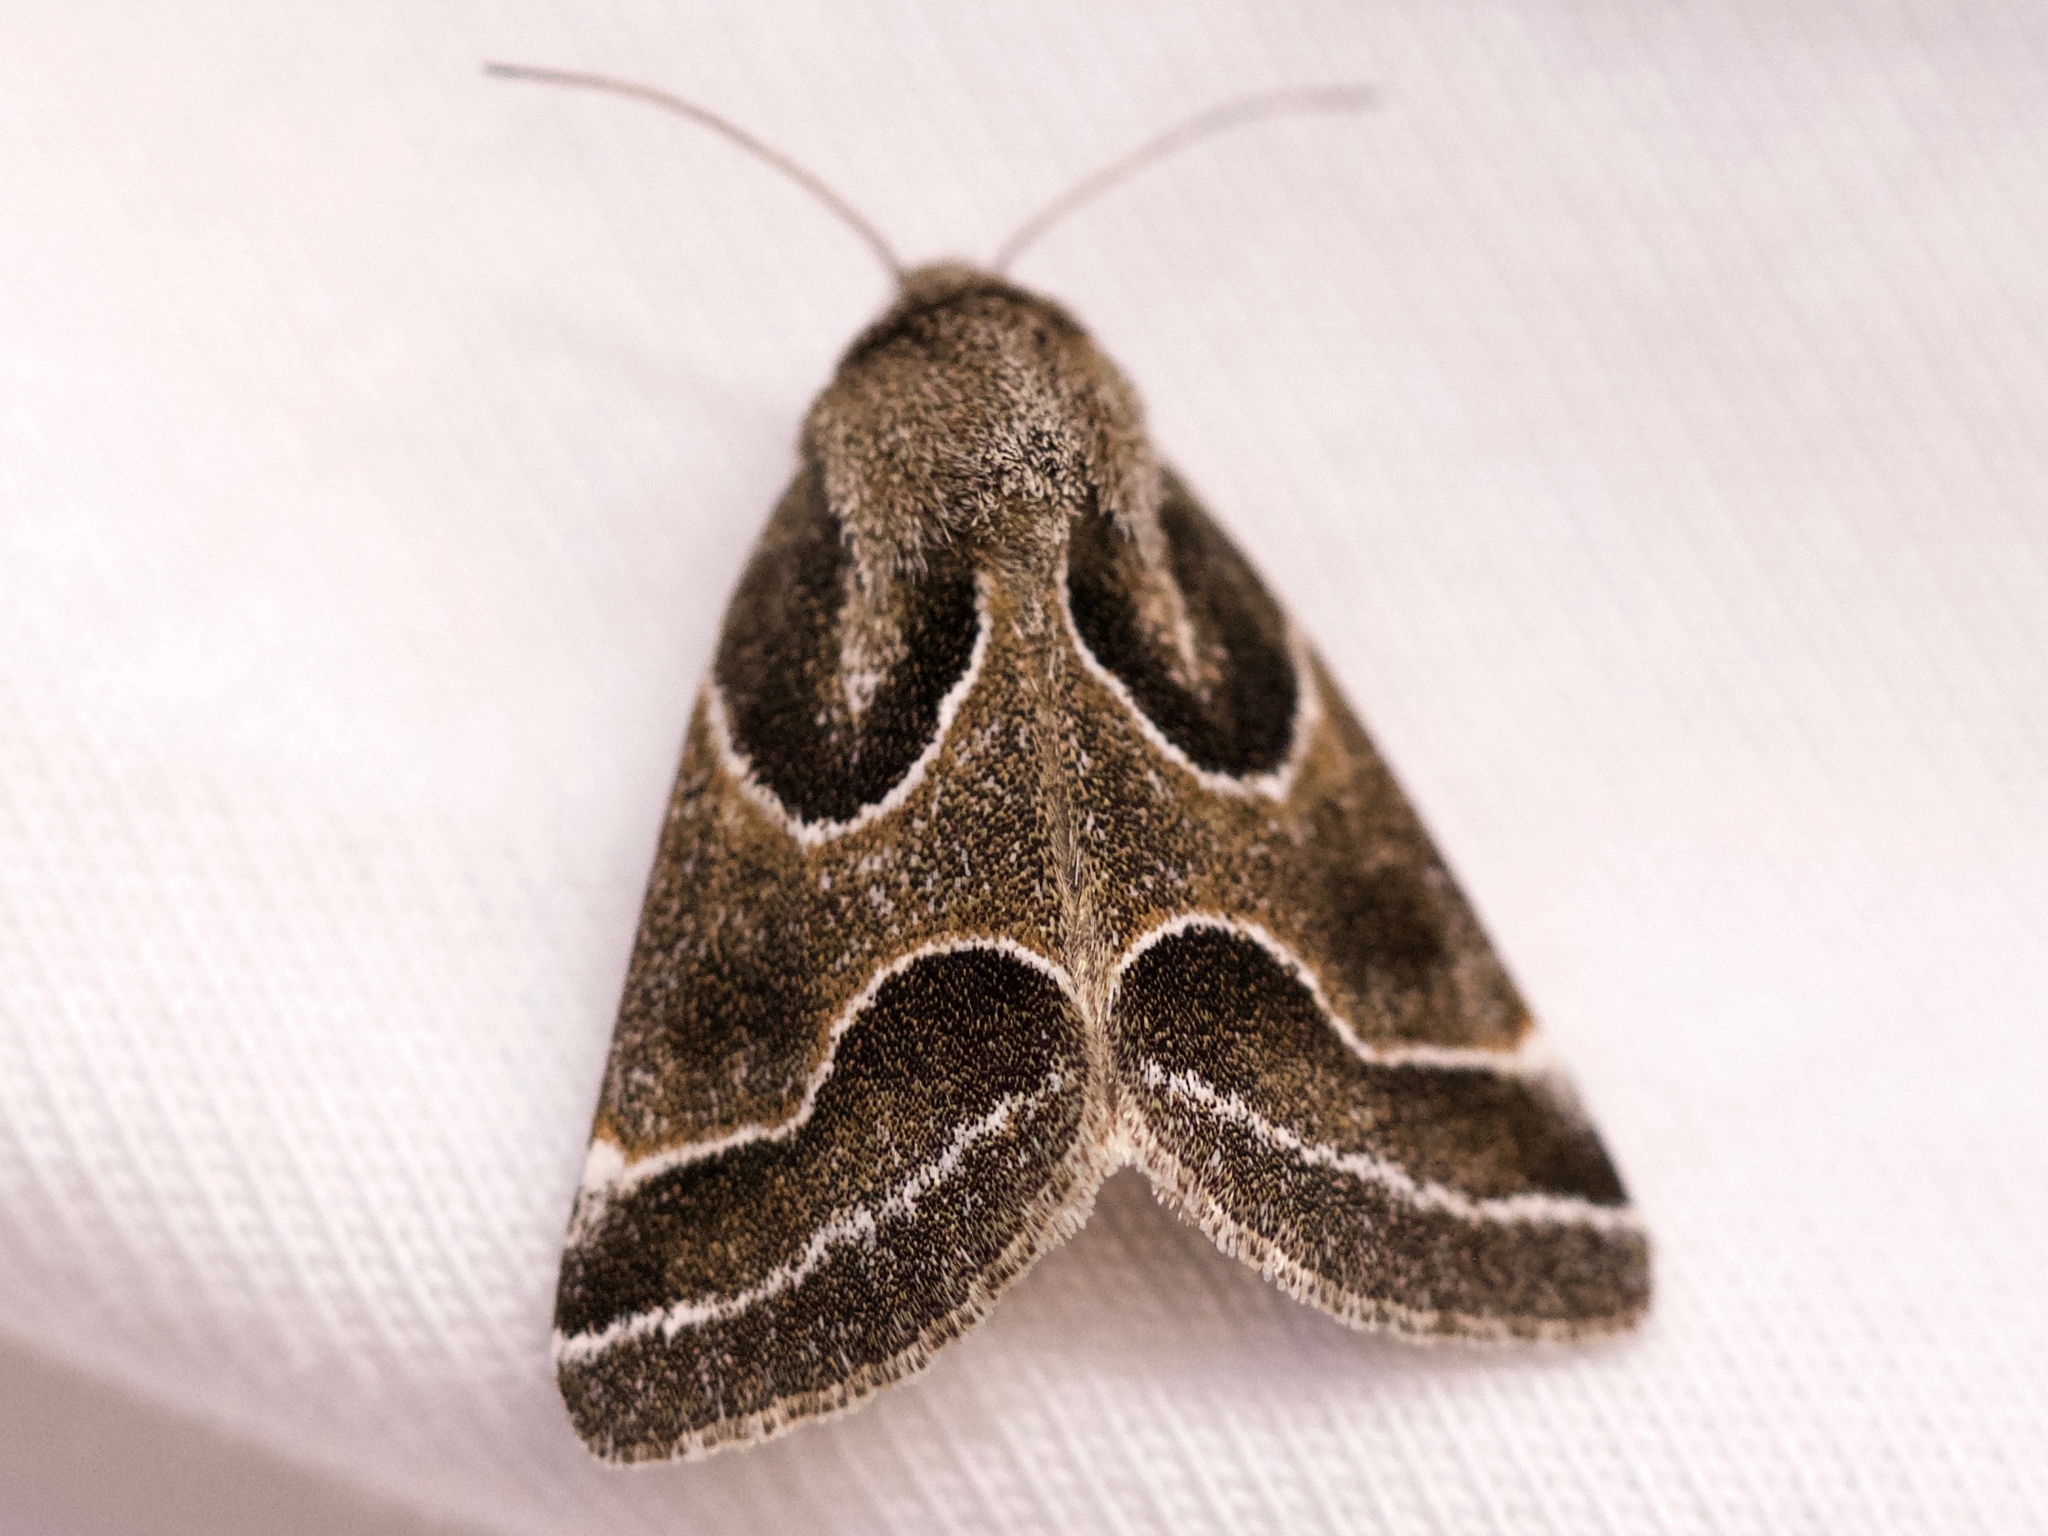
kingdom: Animalia
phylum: Arthropoda
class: Insecta
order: Lepidoptera
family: Noctuidae
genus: Schinia
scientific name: Schinia rivulosa
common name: Scarce meal-moth
